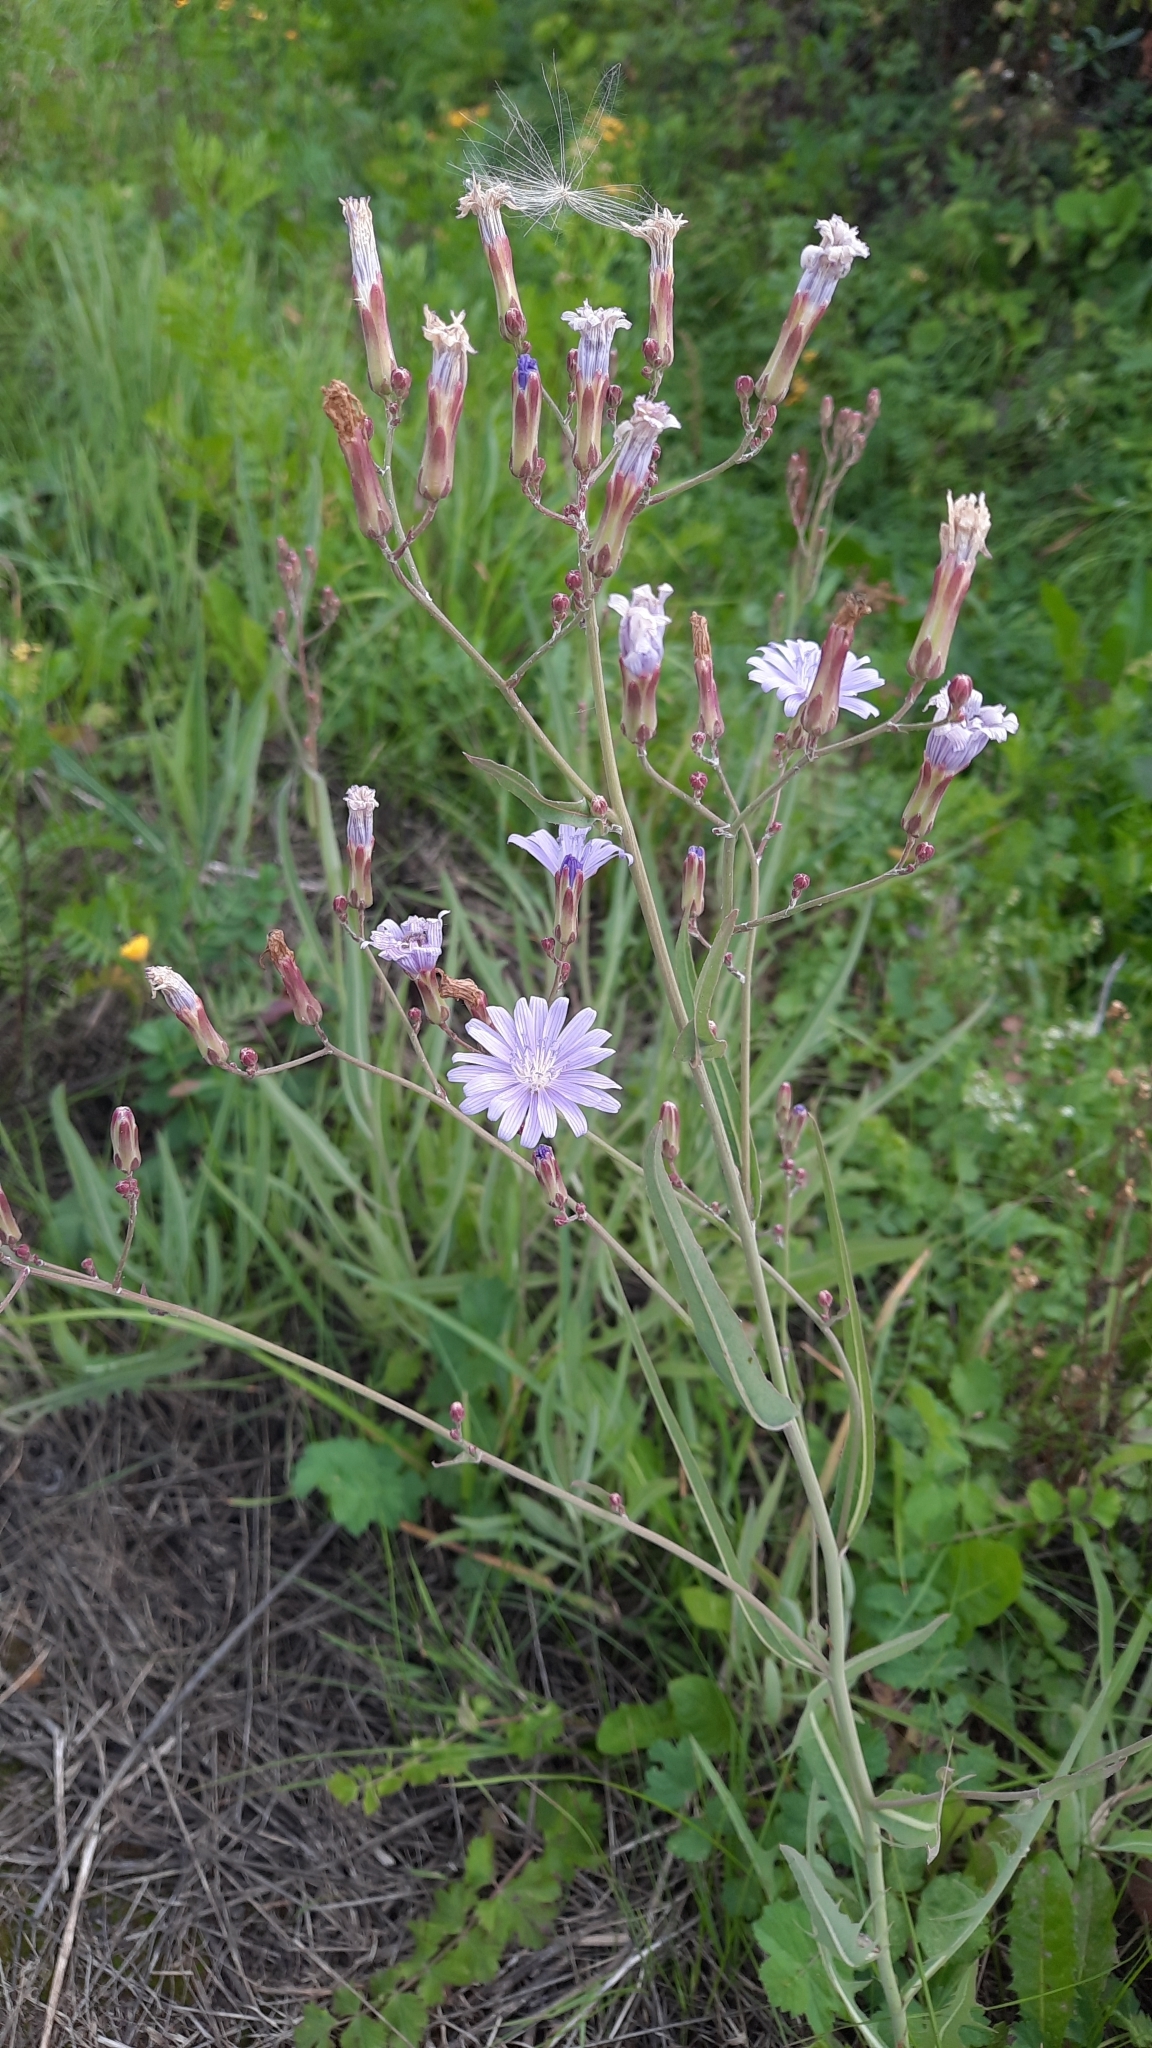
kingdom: Plantae
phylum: Tracheophyta
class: Magnoliopsida
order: Asterales
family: Asteraceae
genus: Lactuca
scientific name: Lactuca tatarica
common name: Blue lettuce
